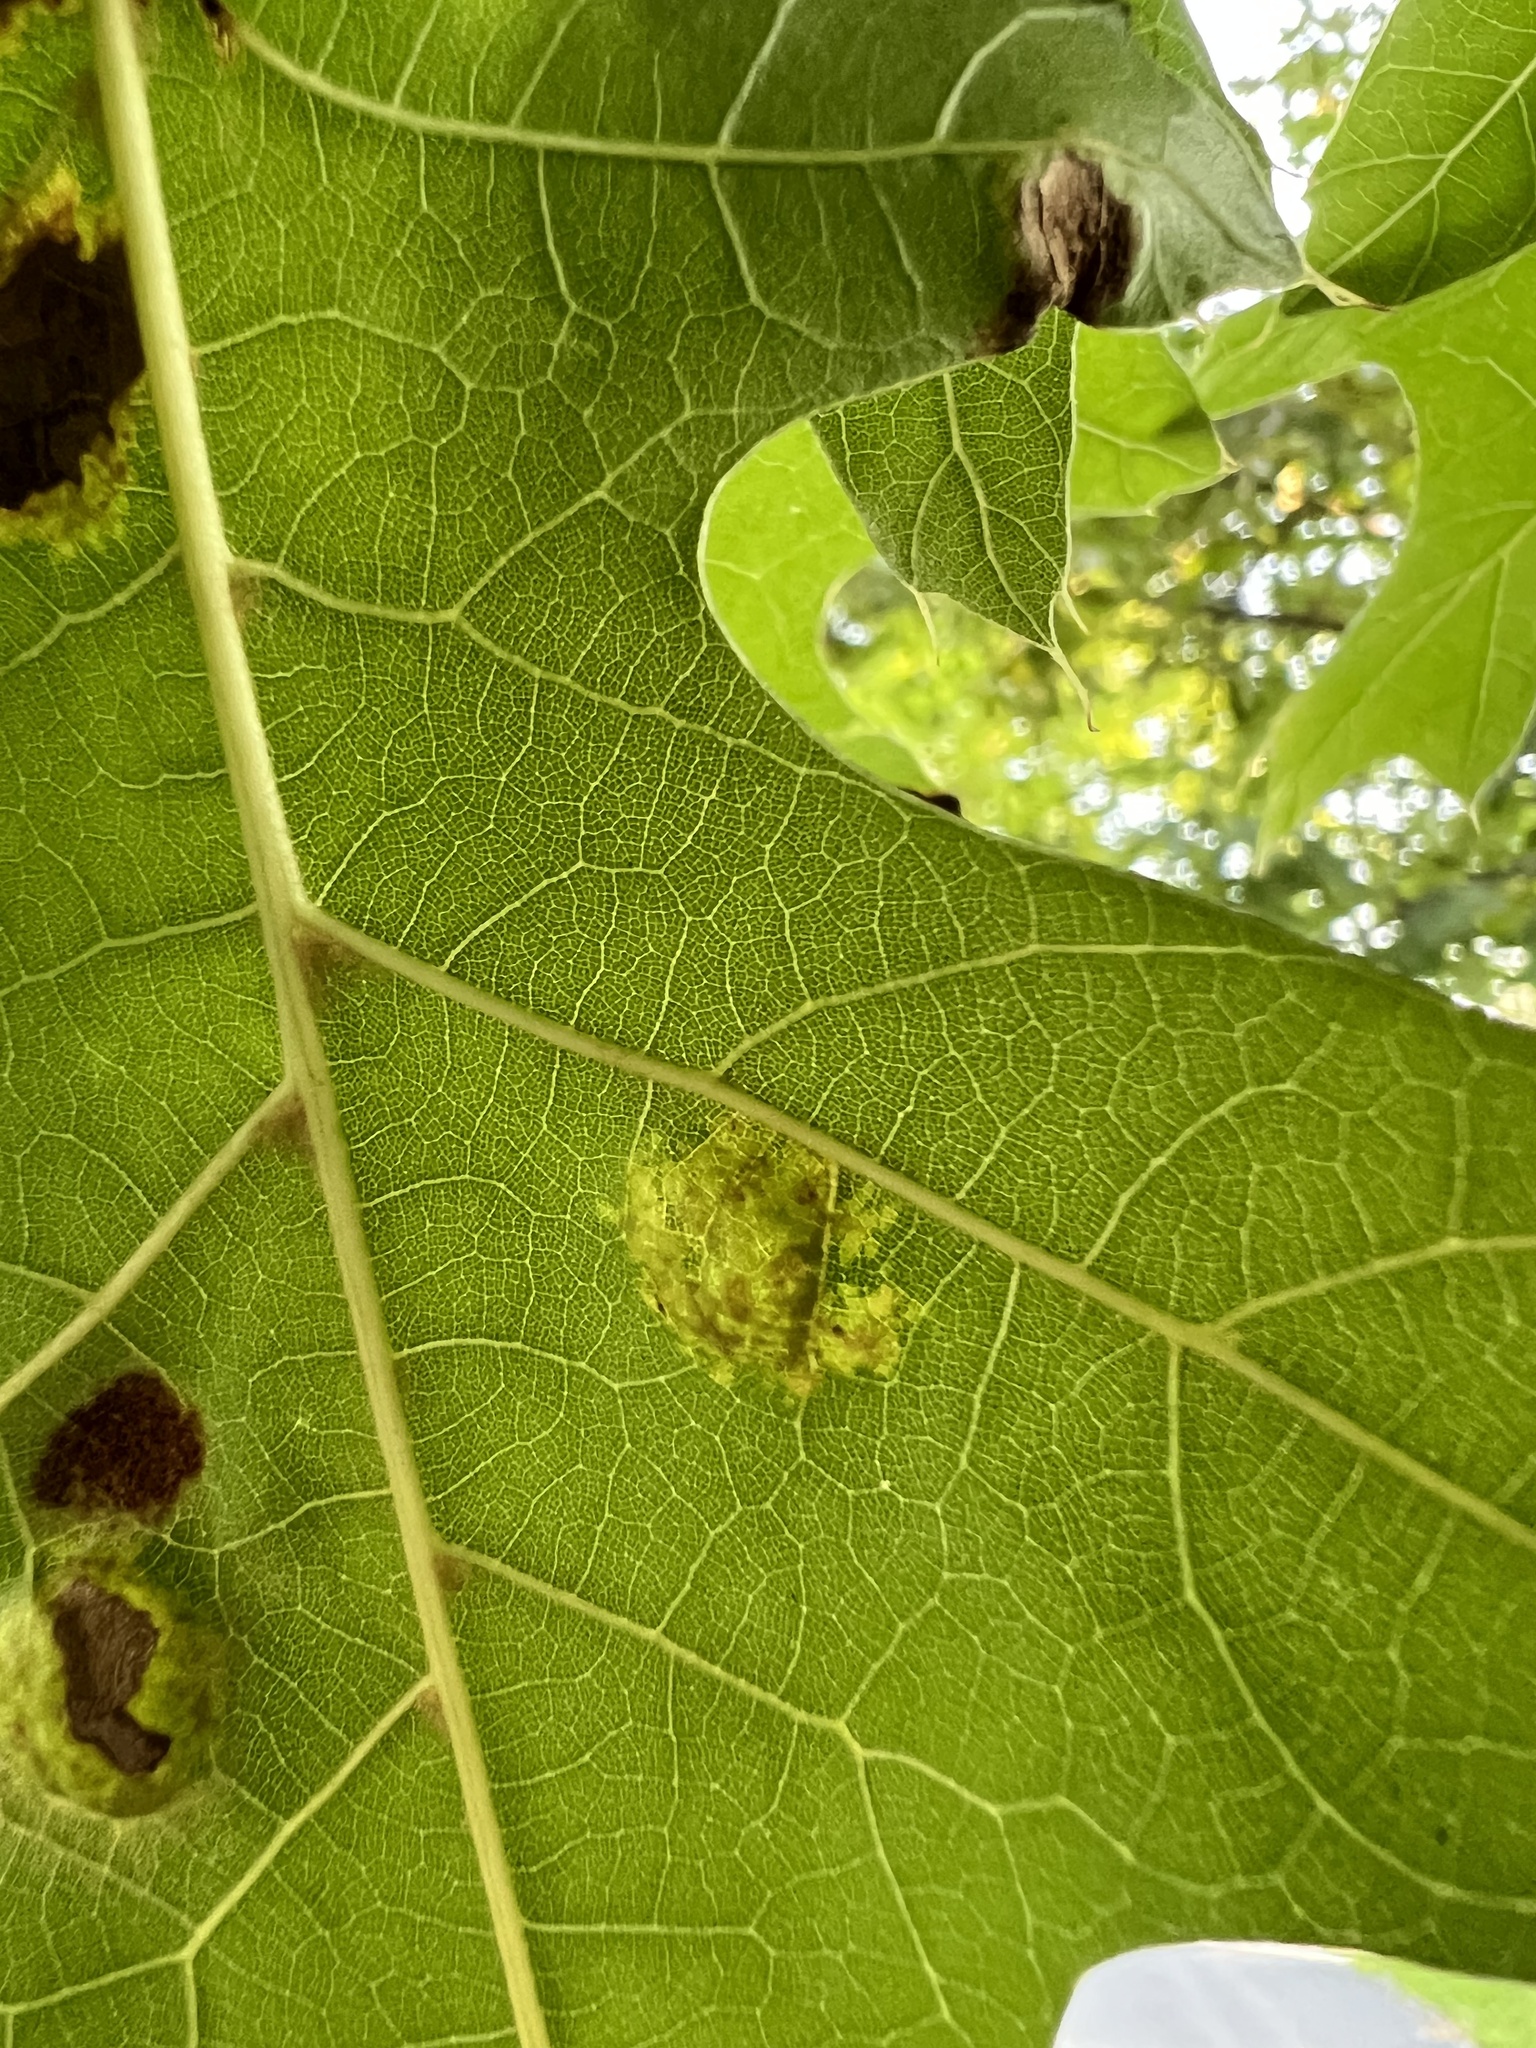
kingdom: Fungi
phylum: Ascomycota
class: Taphrinomycetes
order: Taphrinales
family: Taphrinaceae
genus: Taphrina
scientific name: Taphrina caerulescens
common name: Oak leaf blister
